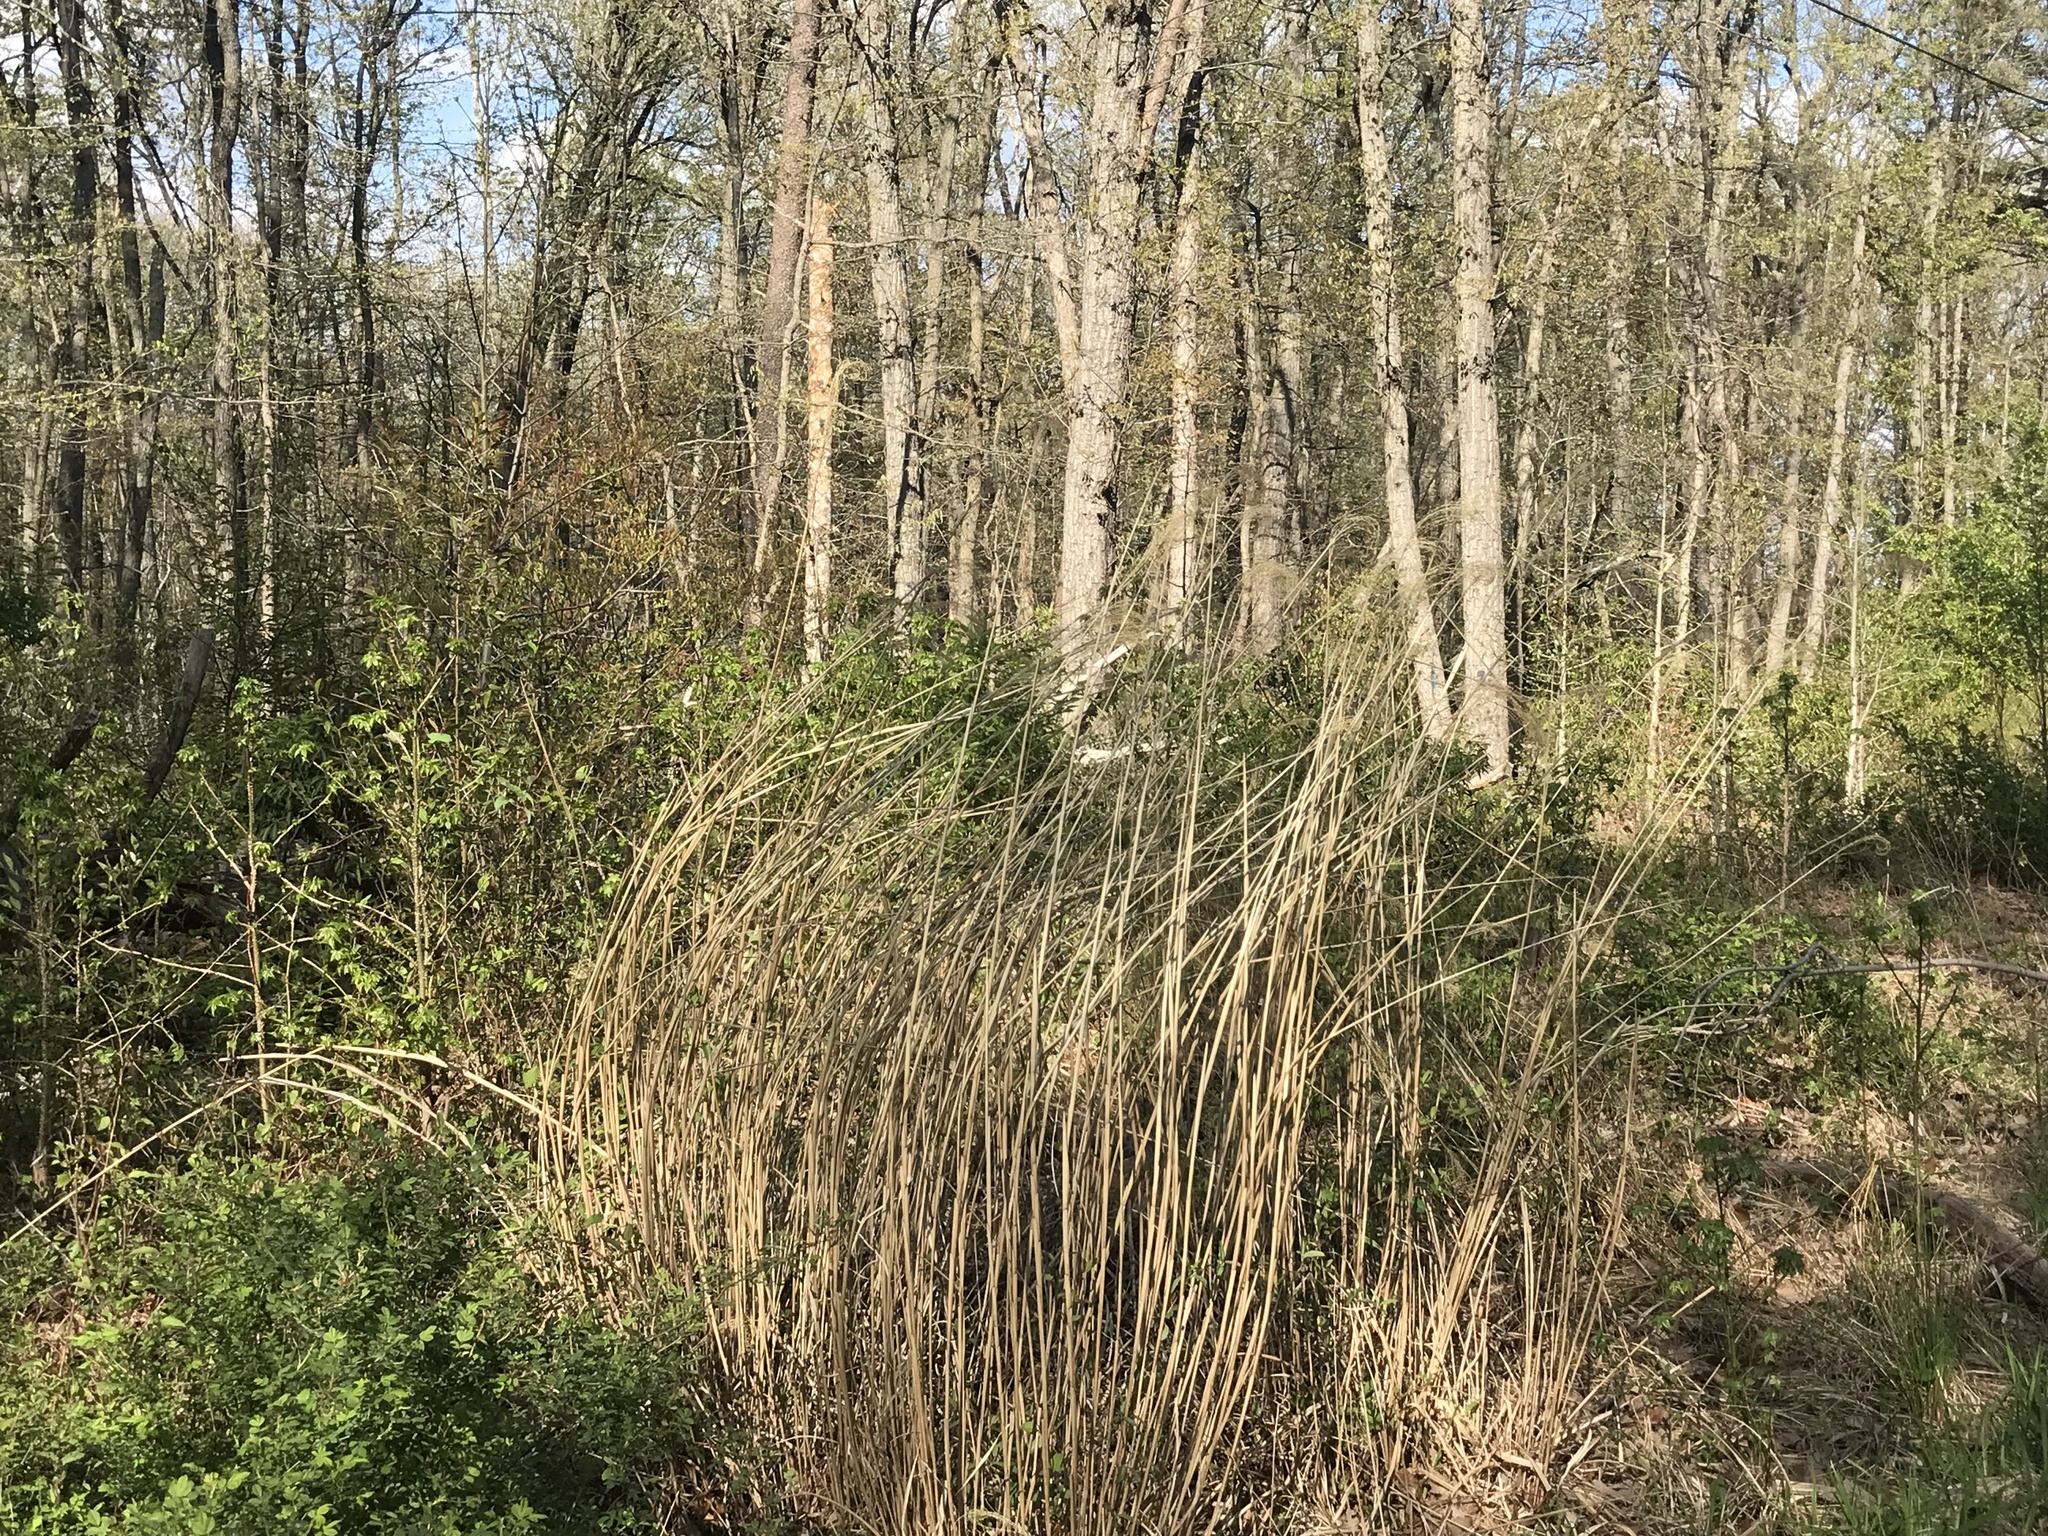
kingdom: Plantae
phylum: Tracheophyta
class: Liliopsida
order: Poales
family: Poaceae
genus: Miscanthus
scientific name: Miscanthus sinensis
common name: Chinese silvergrass
